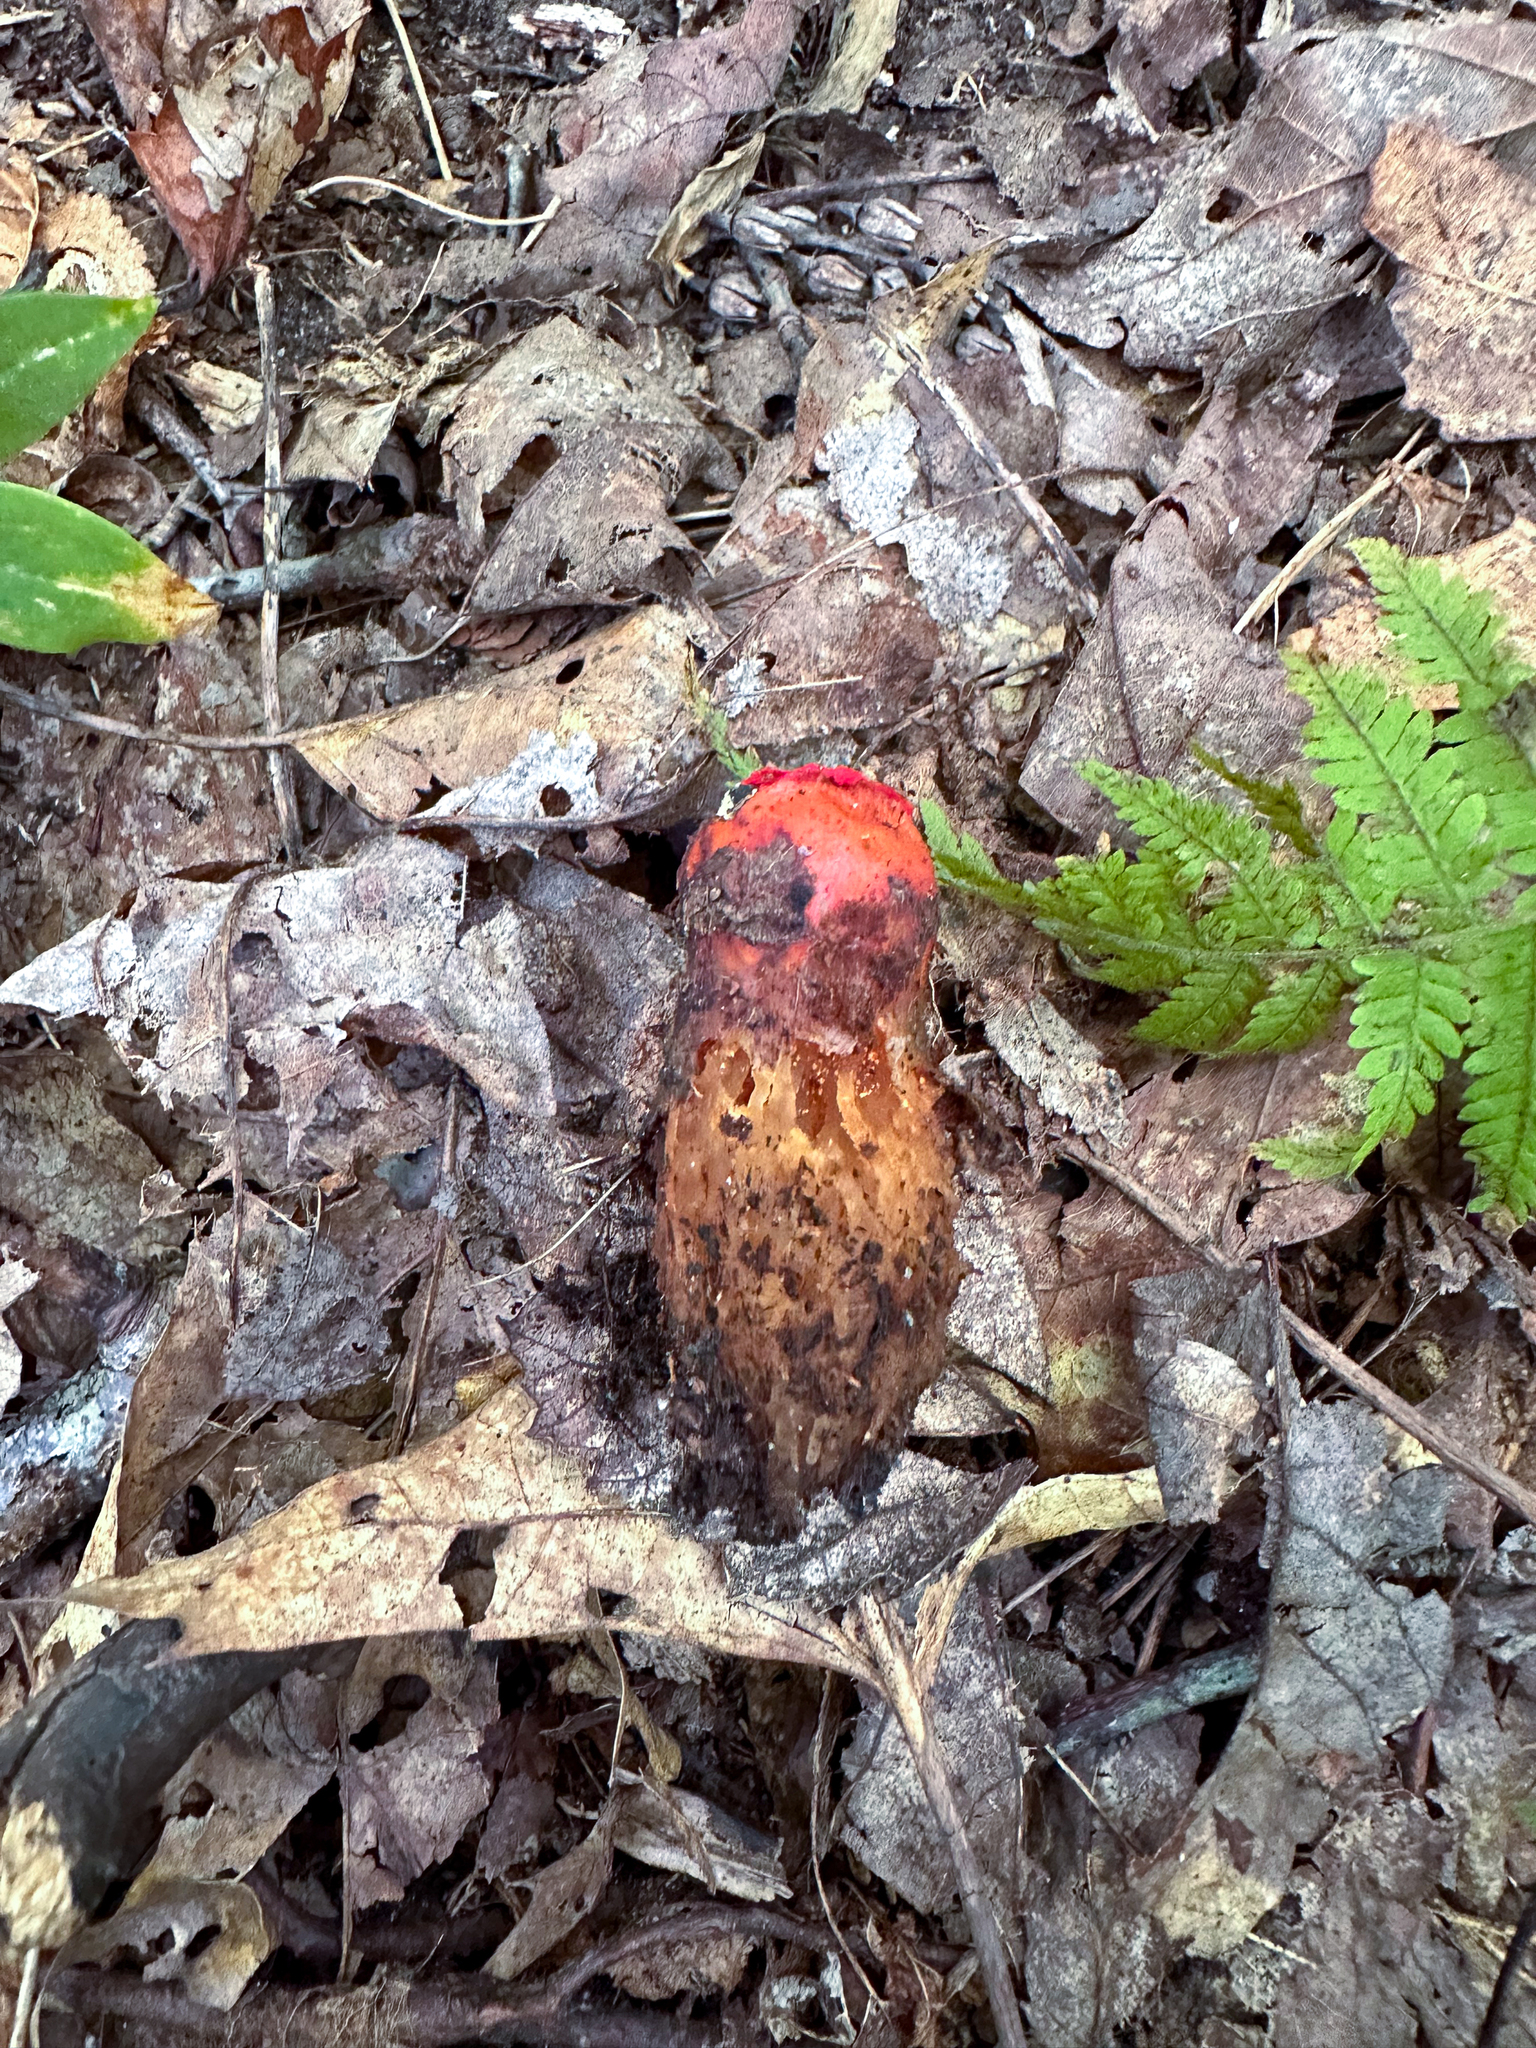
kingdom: Fungi
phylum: Basidiomycota
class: Agaricomycetes
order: Boletales
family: Calostomataceae
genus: Calostoma
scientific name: Calostoma cinnabarinum
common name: Stalked puffball-in-aspic
